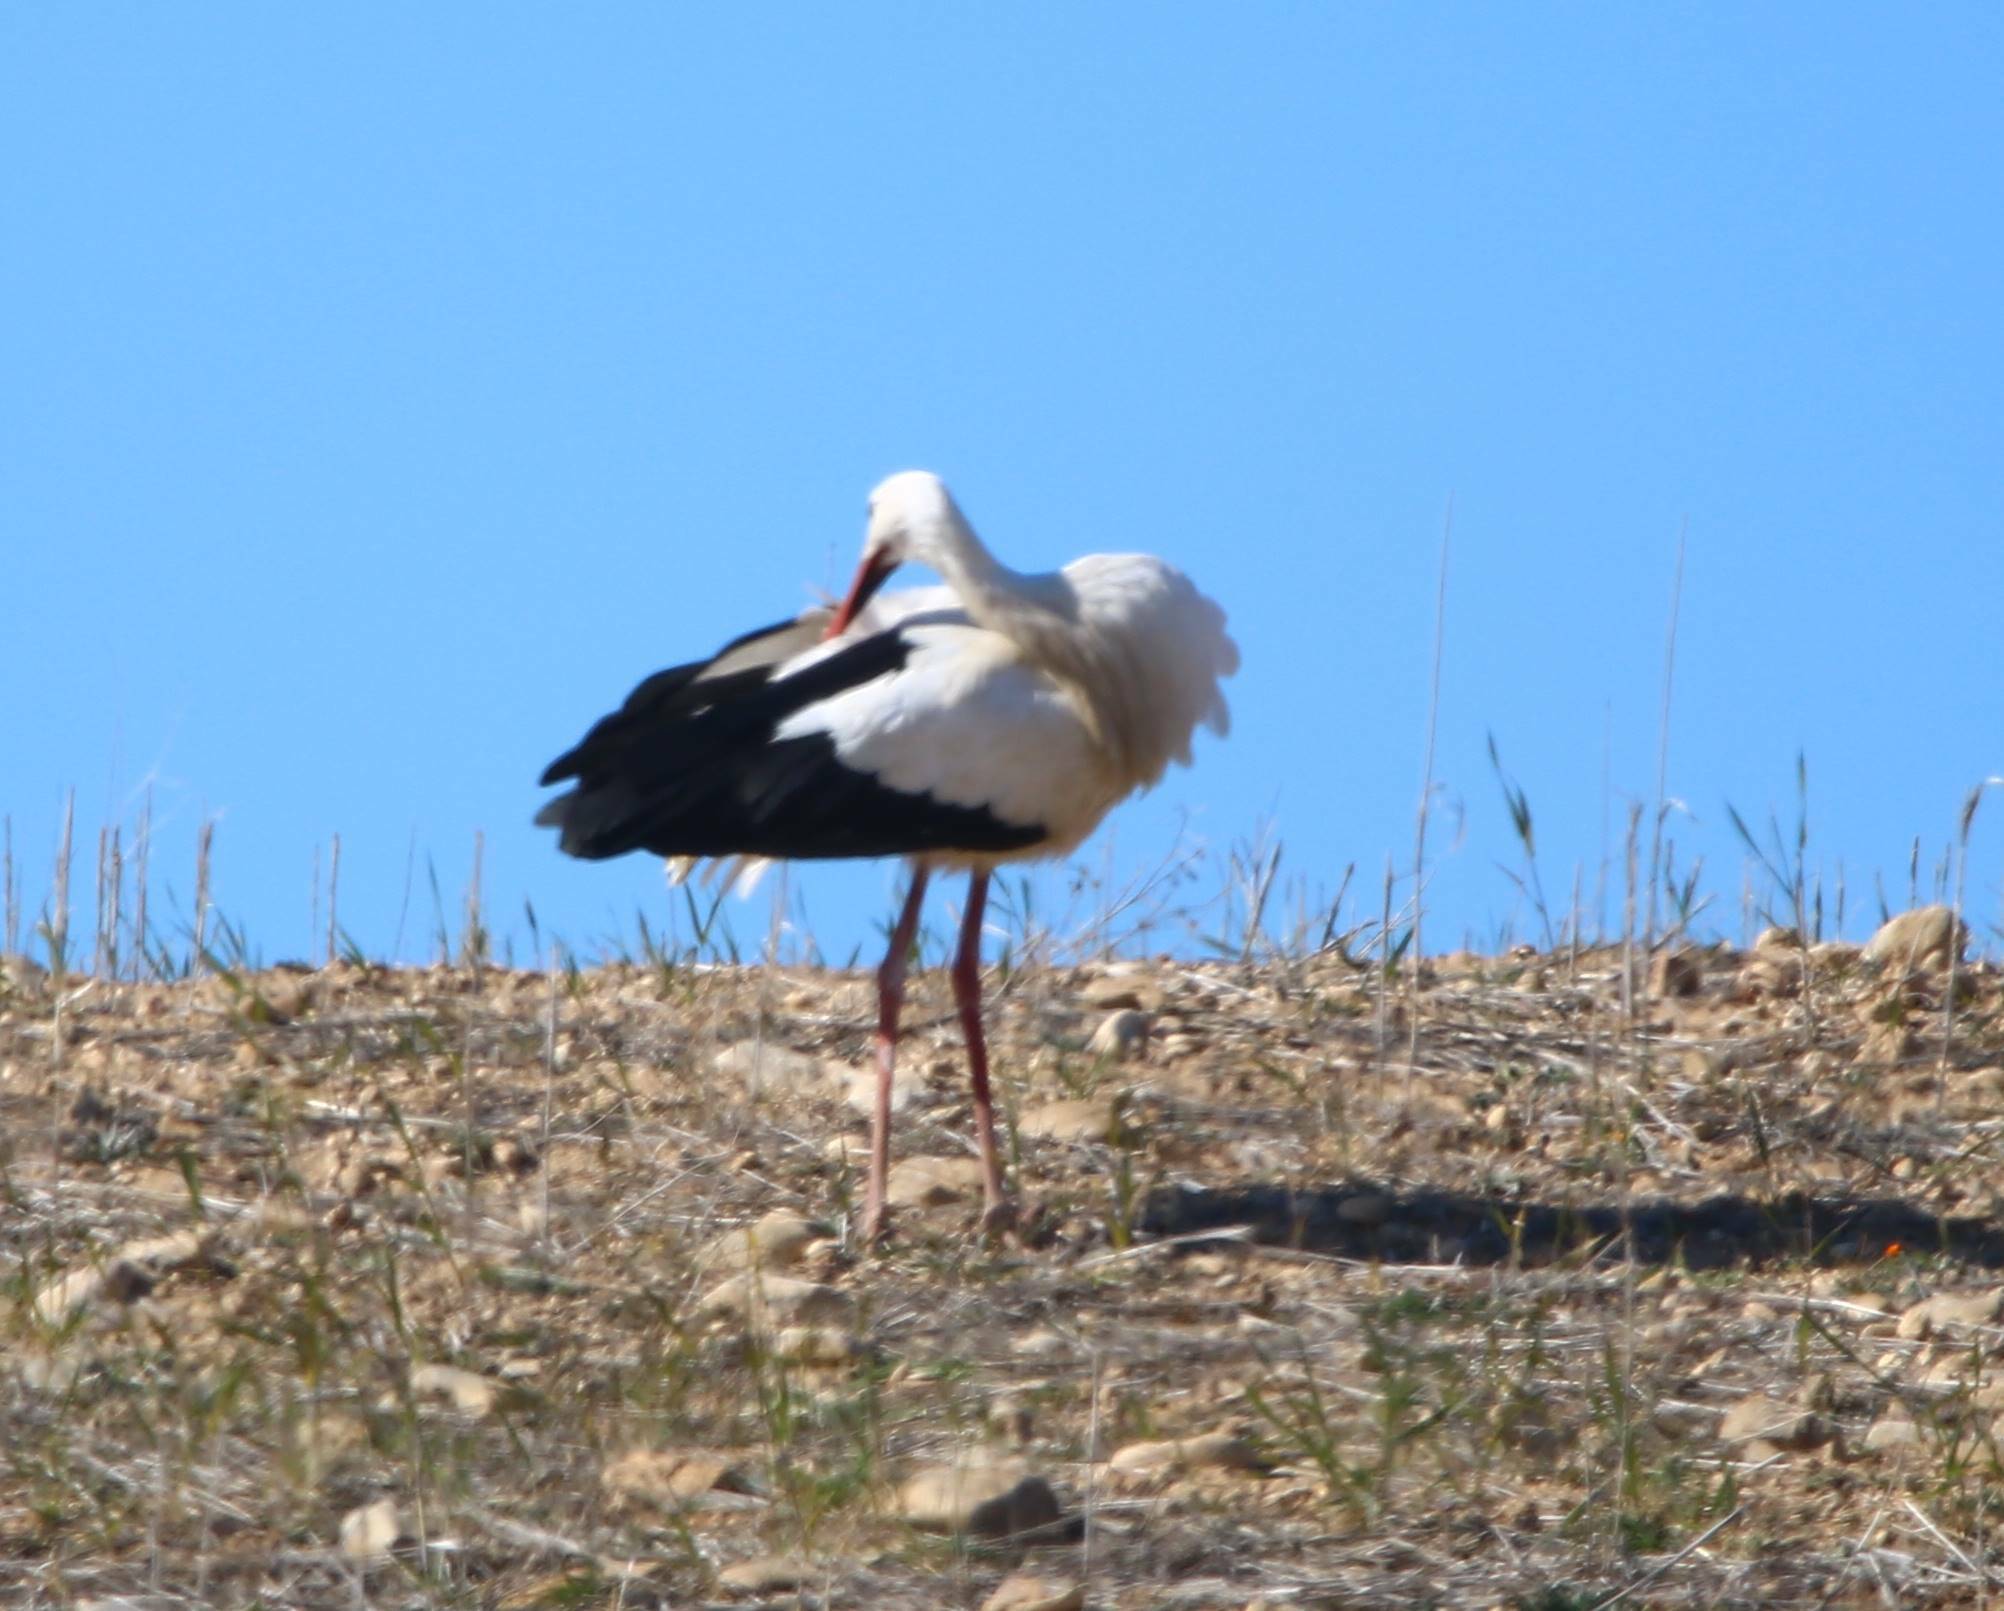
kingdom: Animalia
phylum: Chordata
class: Aves
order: Ciconiiformes
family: Ciconiidae
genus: Ciconia
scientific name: Ciconia ciconia
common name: White stork
